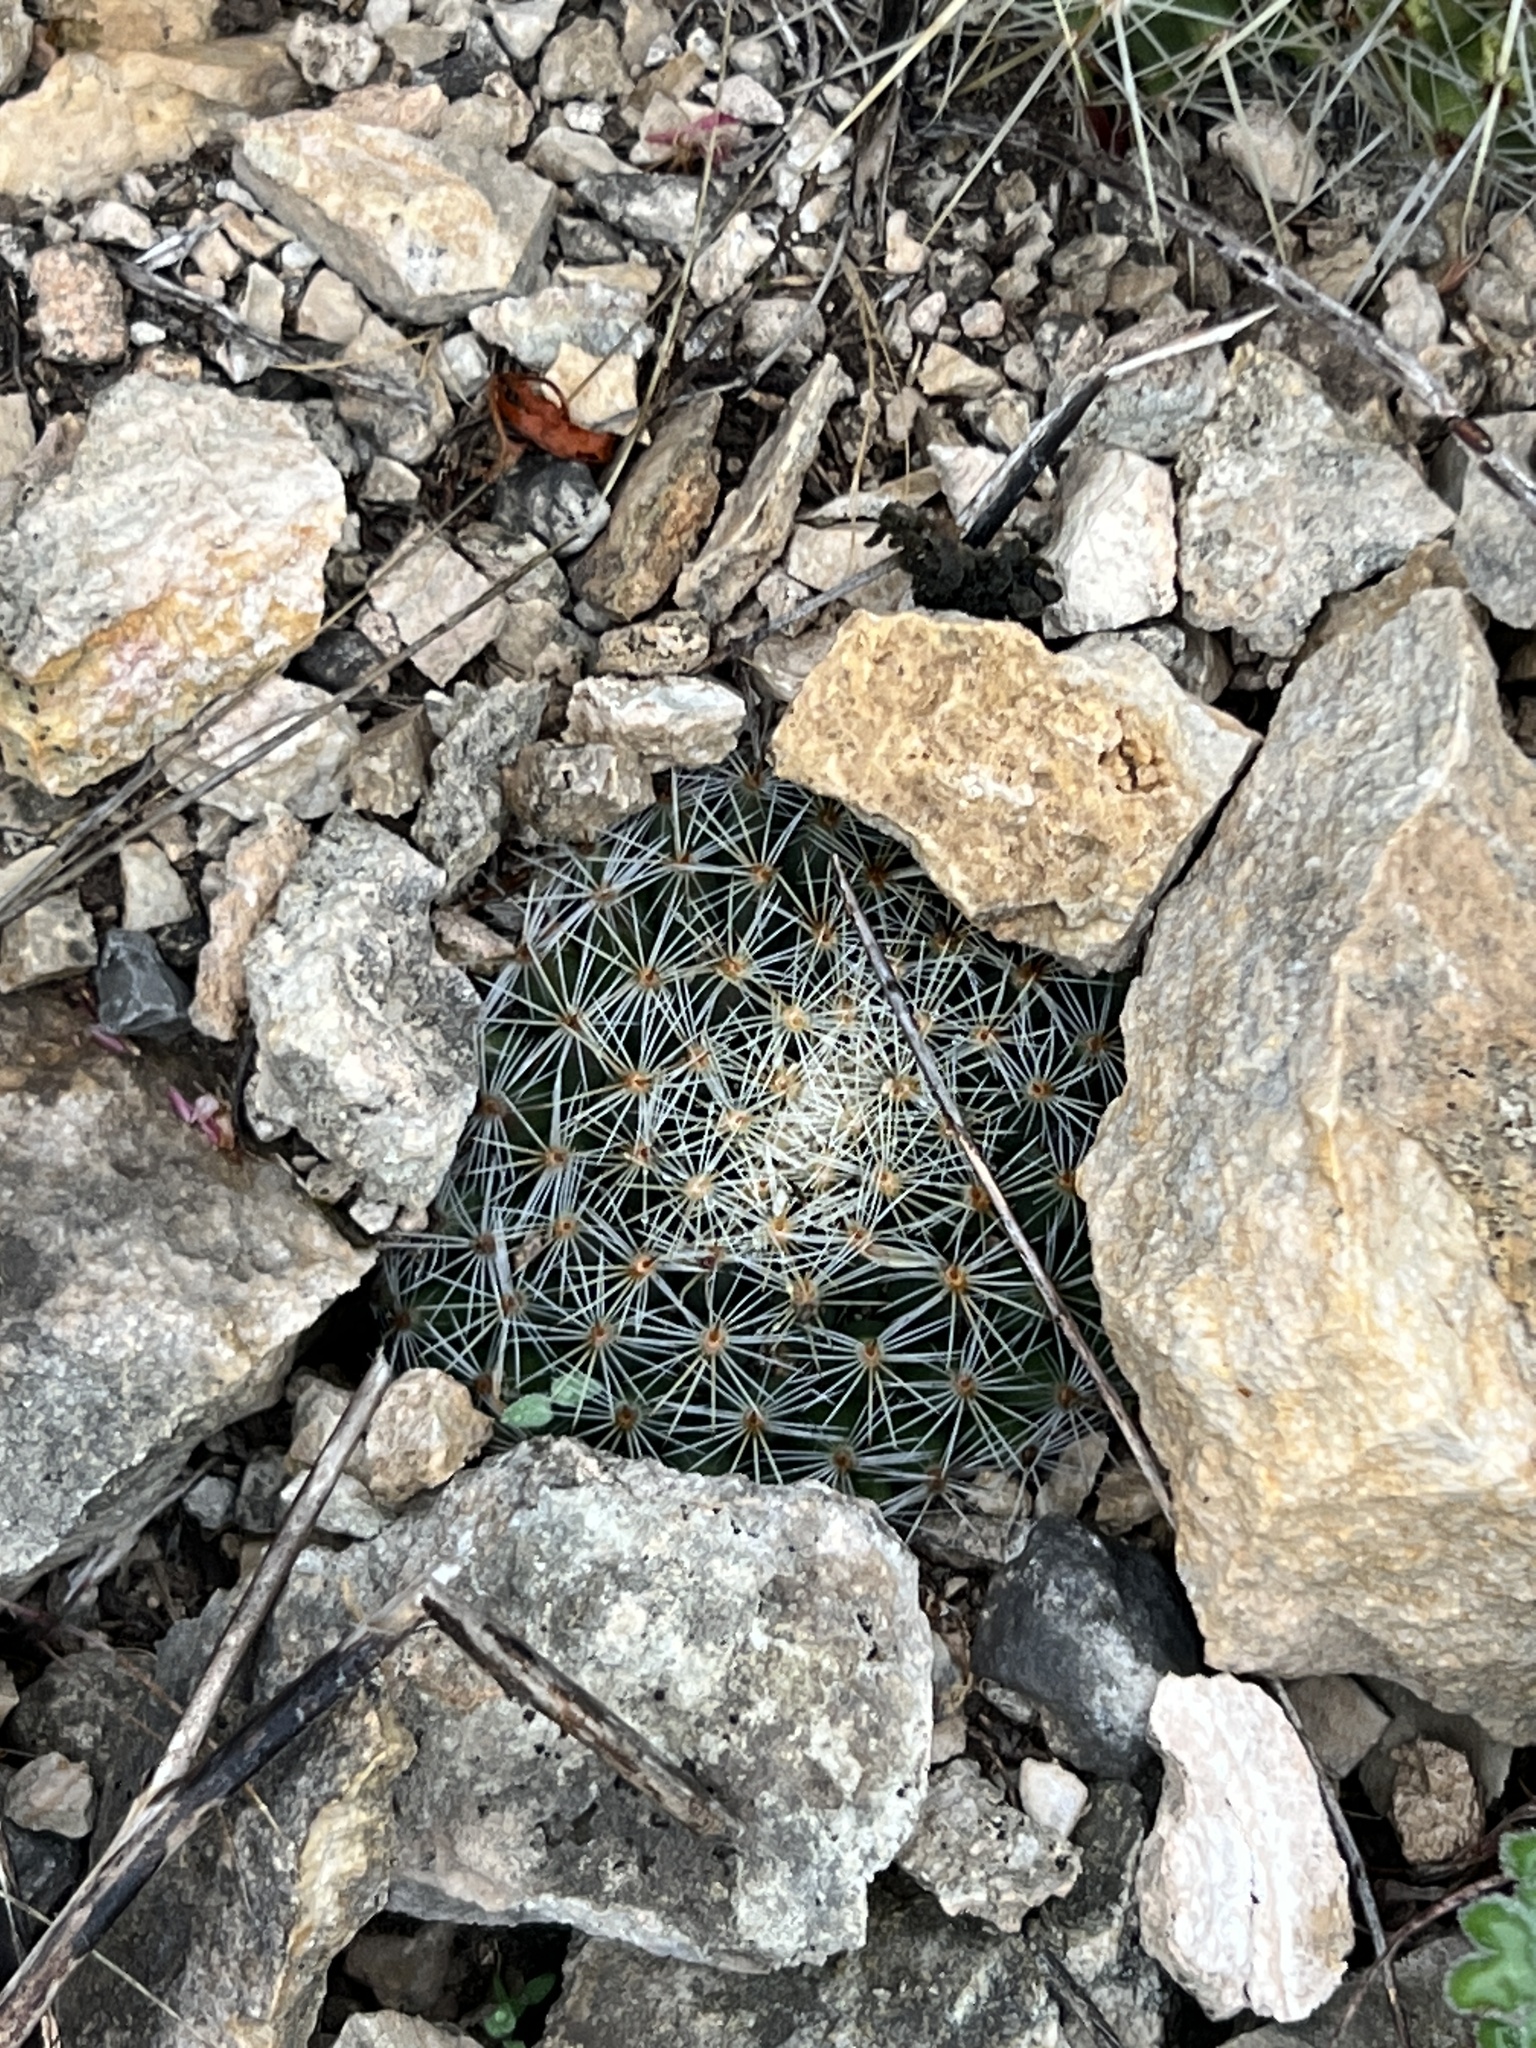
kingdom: Plantae
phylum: Tracheophyta
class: Magnoliopsida
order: Caryophyllales
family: Cactaceae
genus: Mammillaria
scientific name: Mammillaria heyderi
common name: Little nipple cactus
